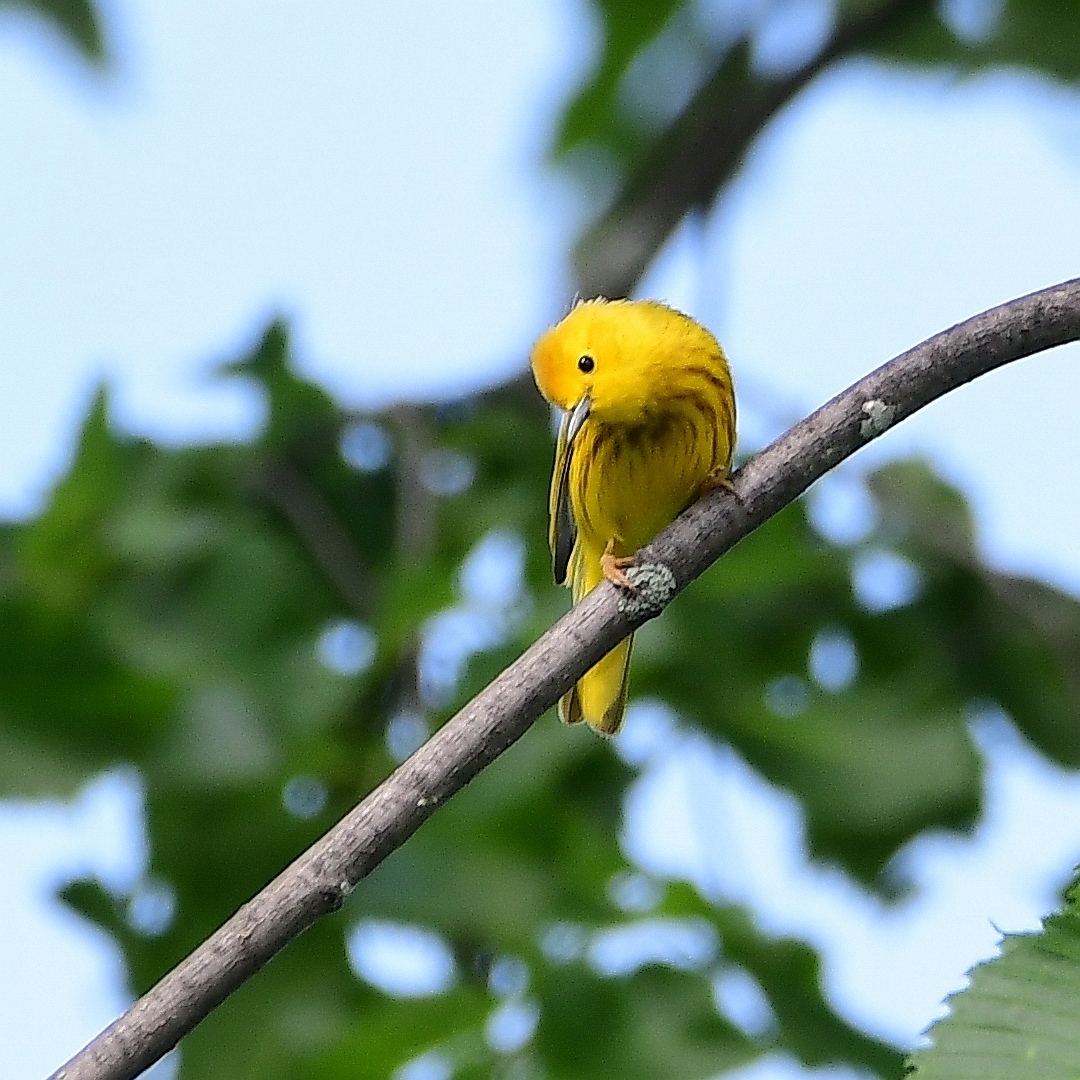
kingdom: Animalia
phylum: Chordata
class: Aves
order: Passeriformes
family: Parulidae
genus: Setophaga
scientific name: Setophaga petechia
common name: Yellow warbler
